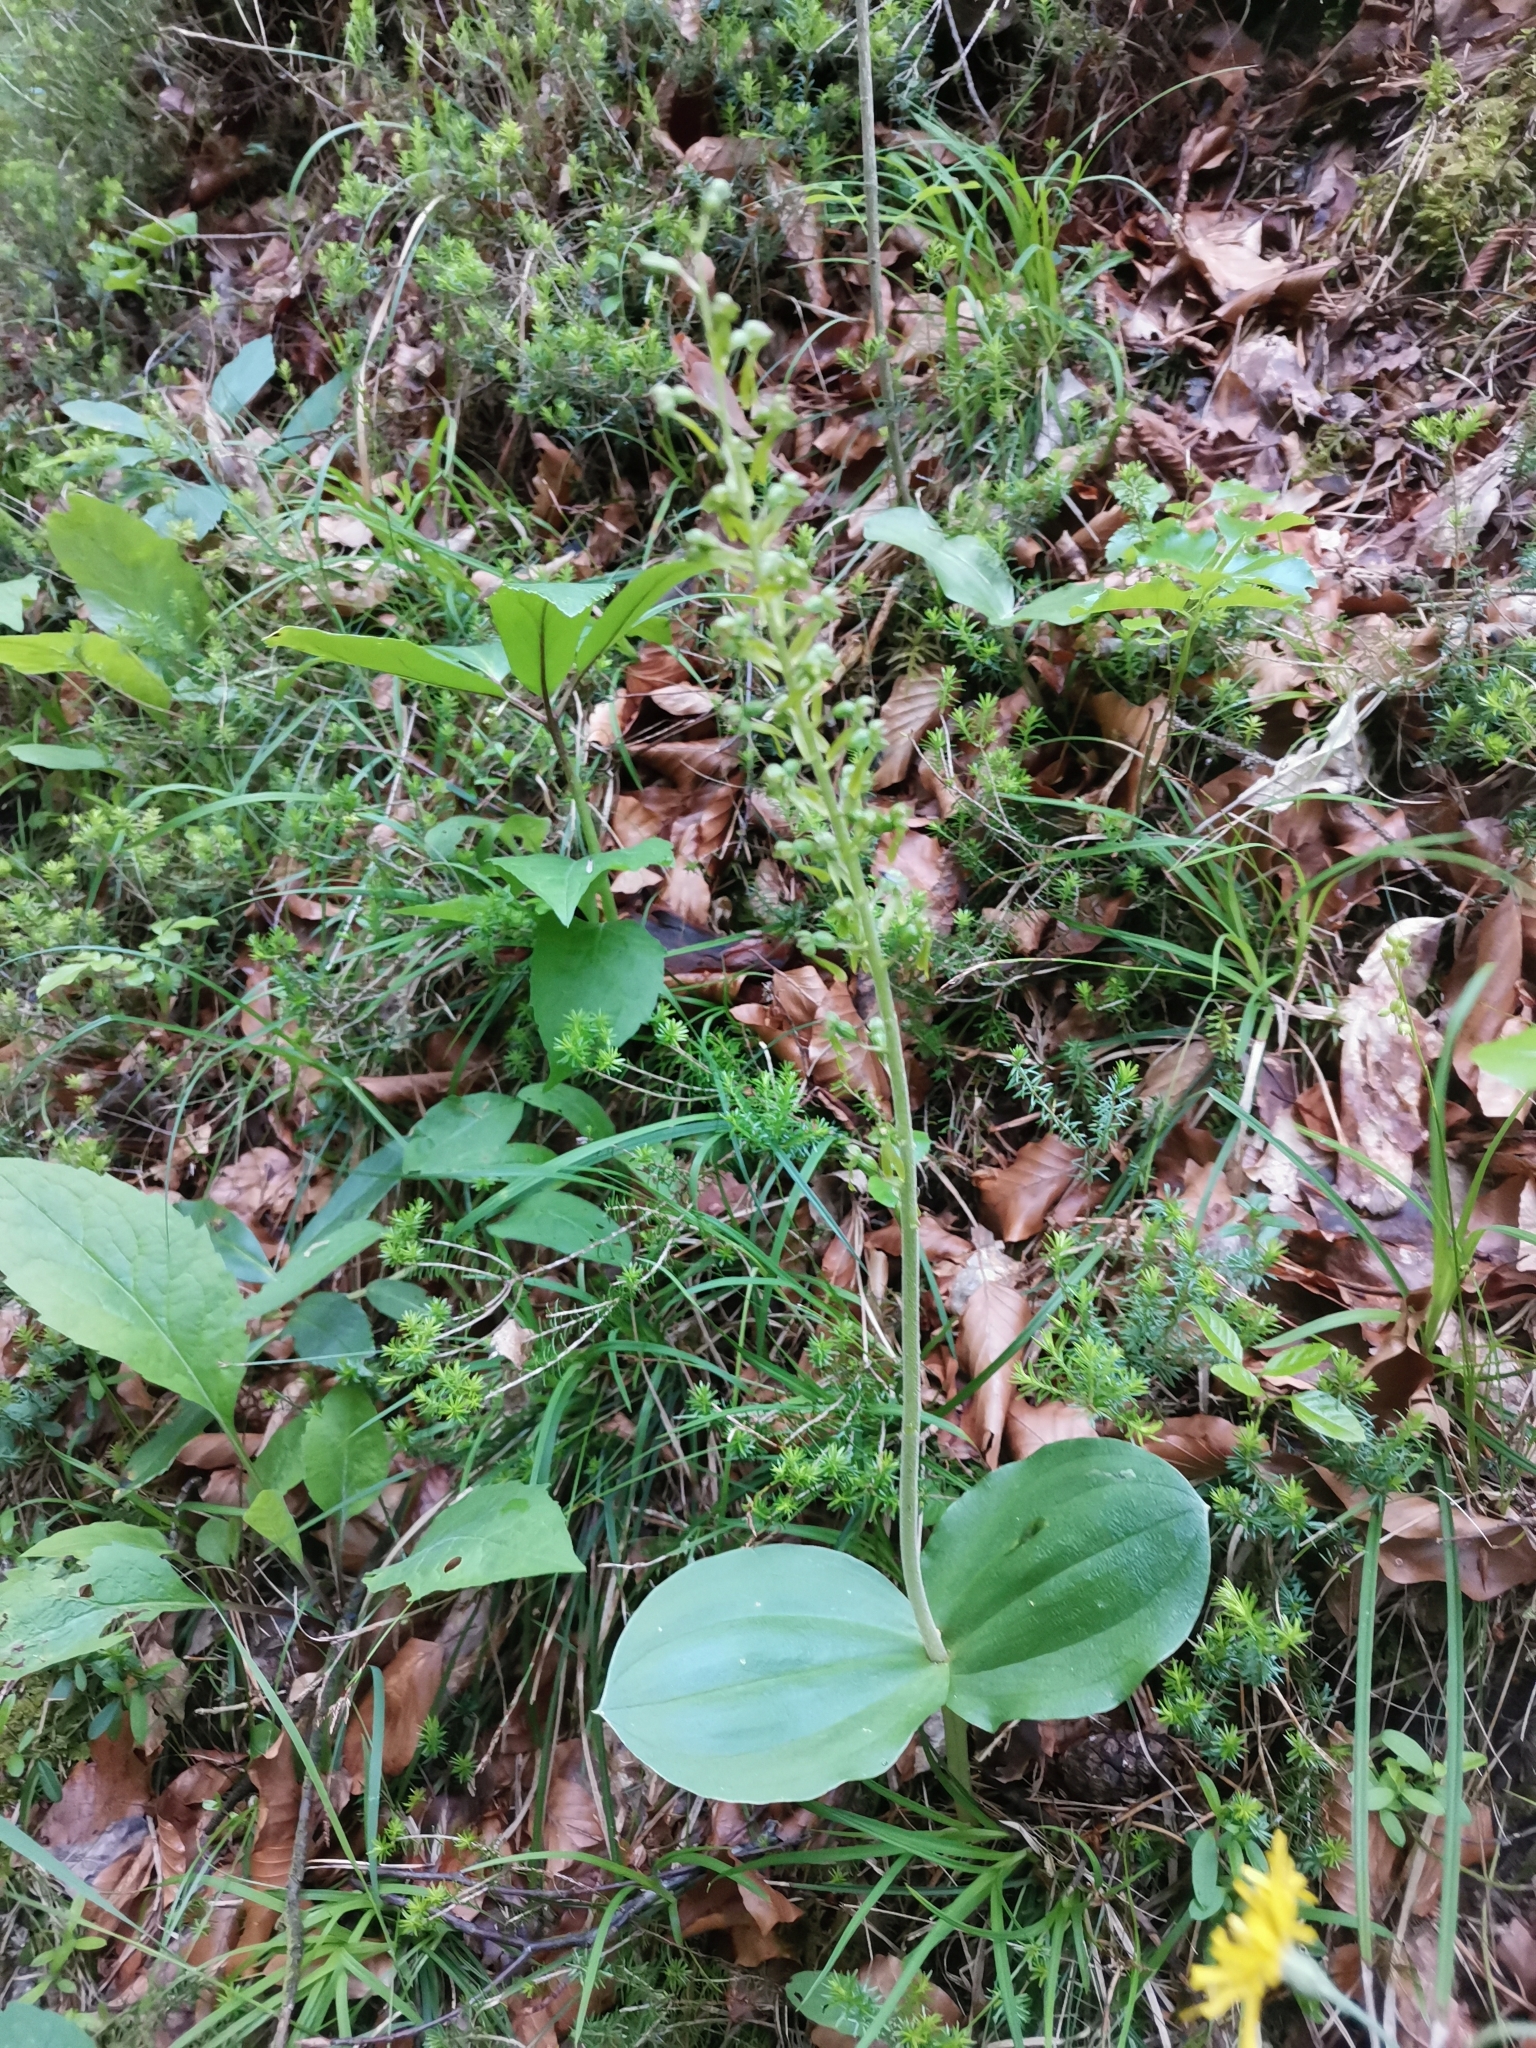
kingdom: Plantae
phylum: Tracheophyta
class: Liliopsida
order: Asparagales
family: Orchidaceae
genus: Neottia
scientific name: Neottia ovata
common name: Common twayblade
